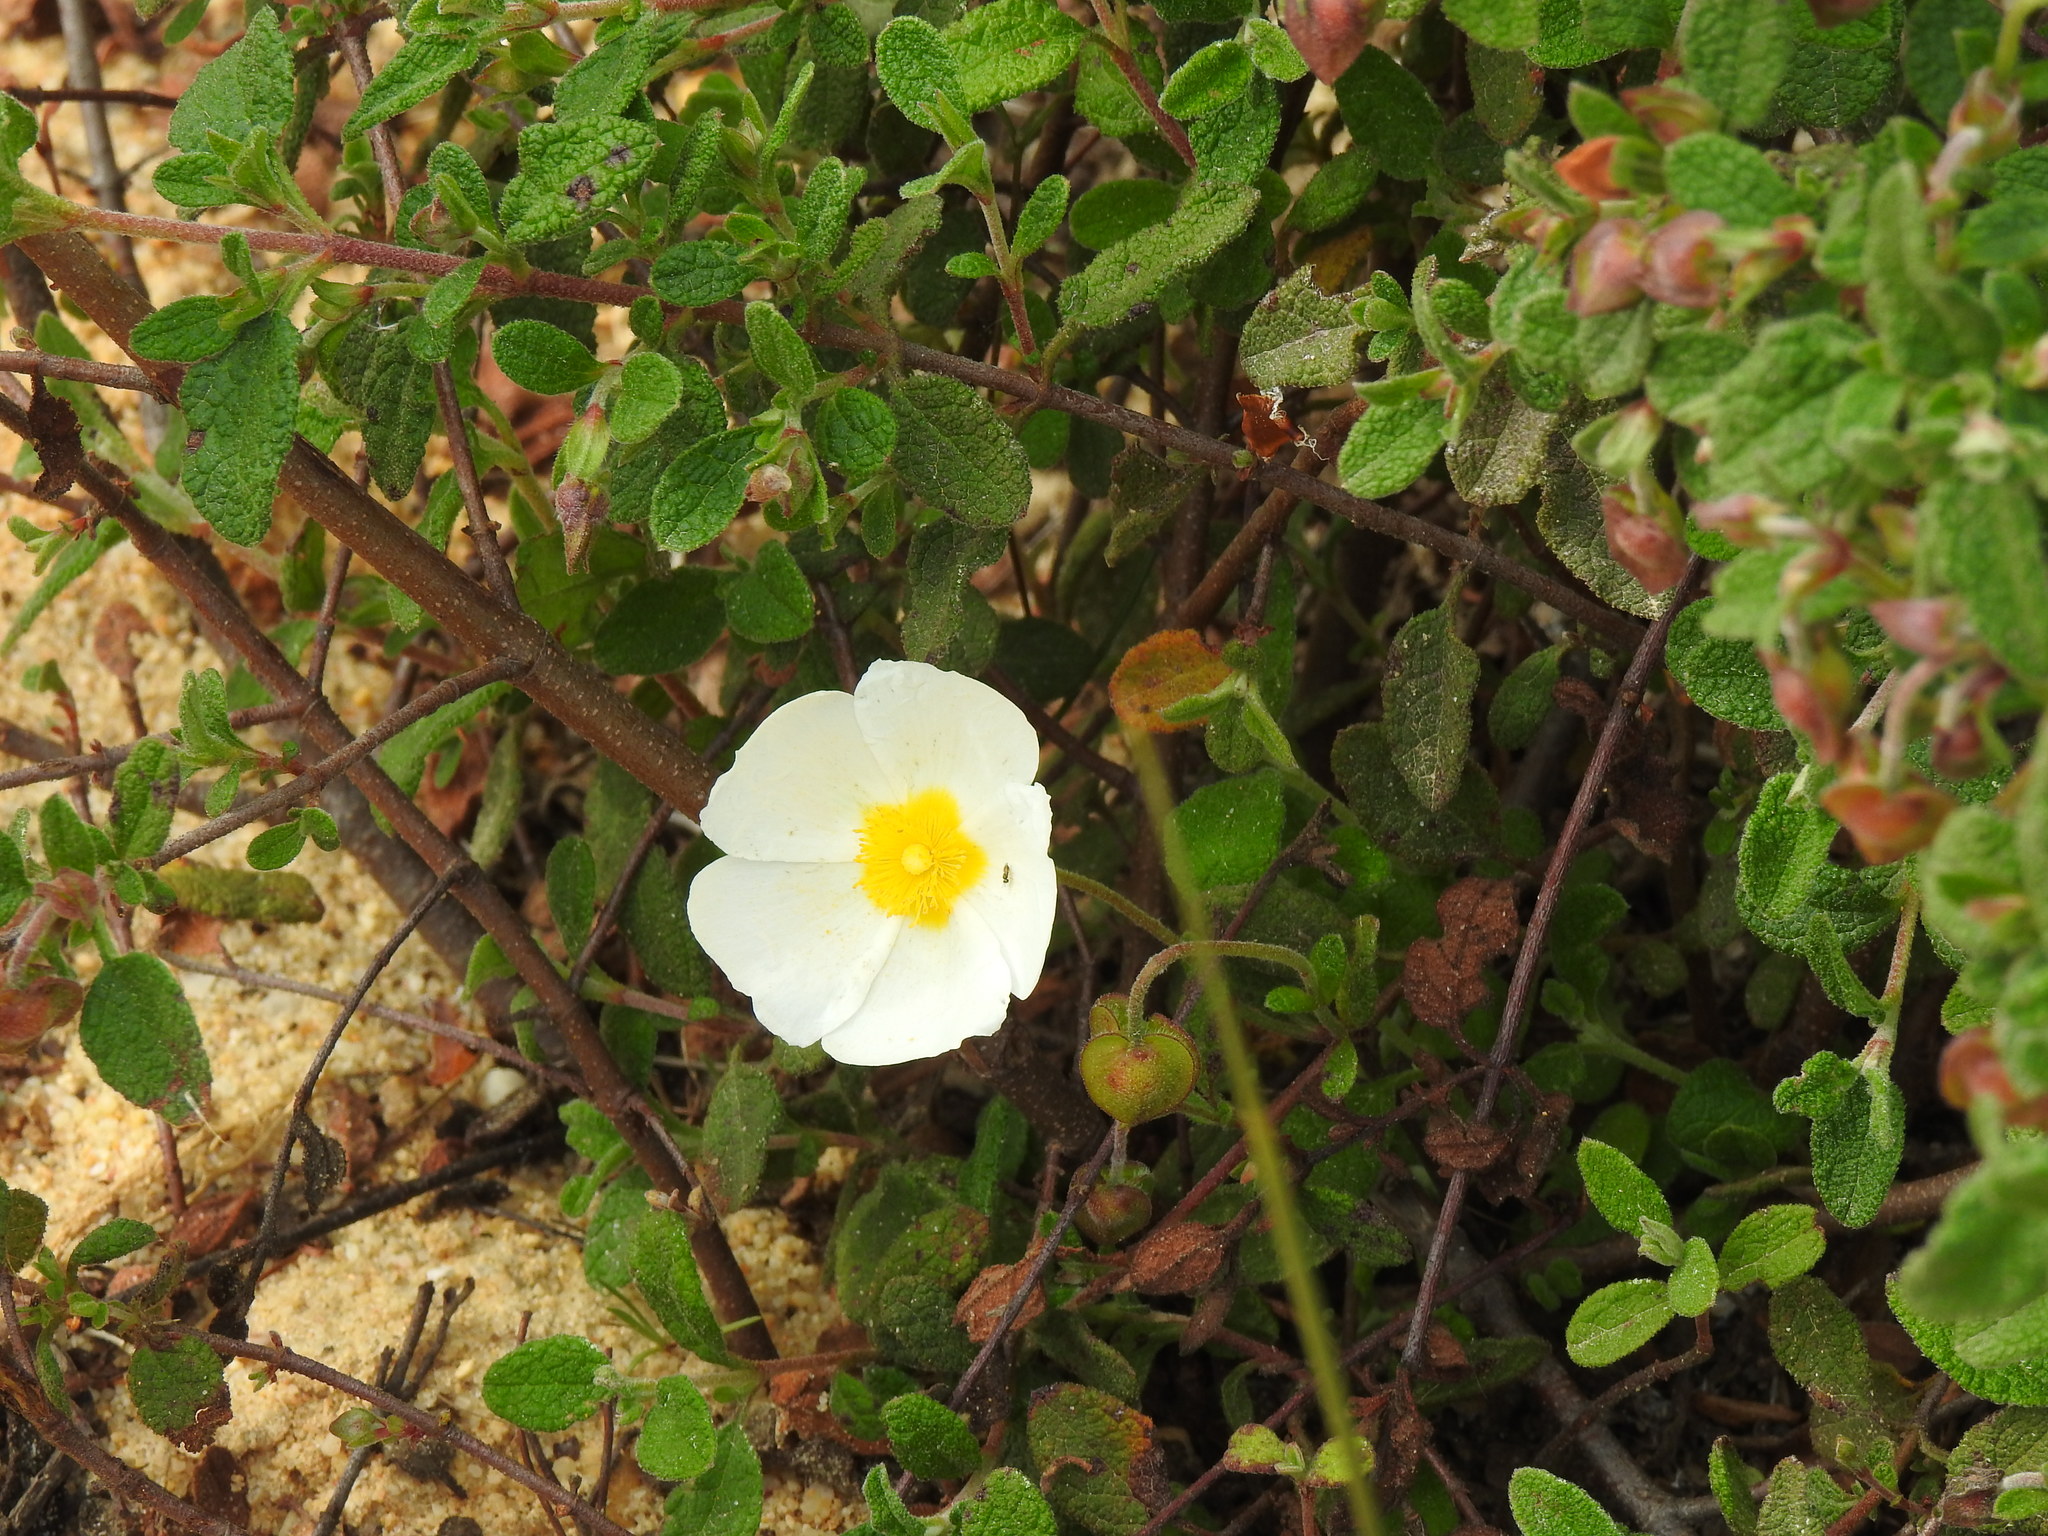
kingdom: Plantae
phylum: Tracheophyta
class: Magnoliopsida
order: Malvales
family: Cistaceae
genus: Cistus
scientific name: Cistus salviifolius
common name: Salvia cistus
